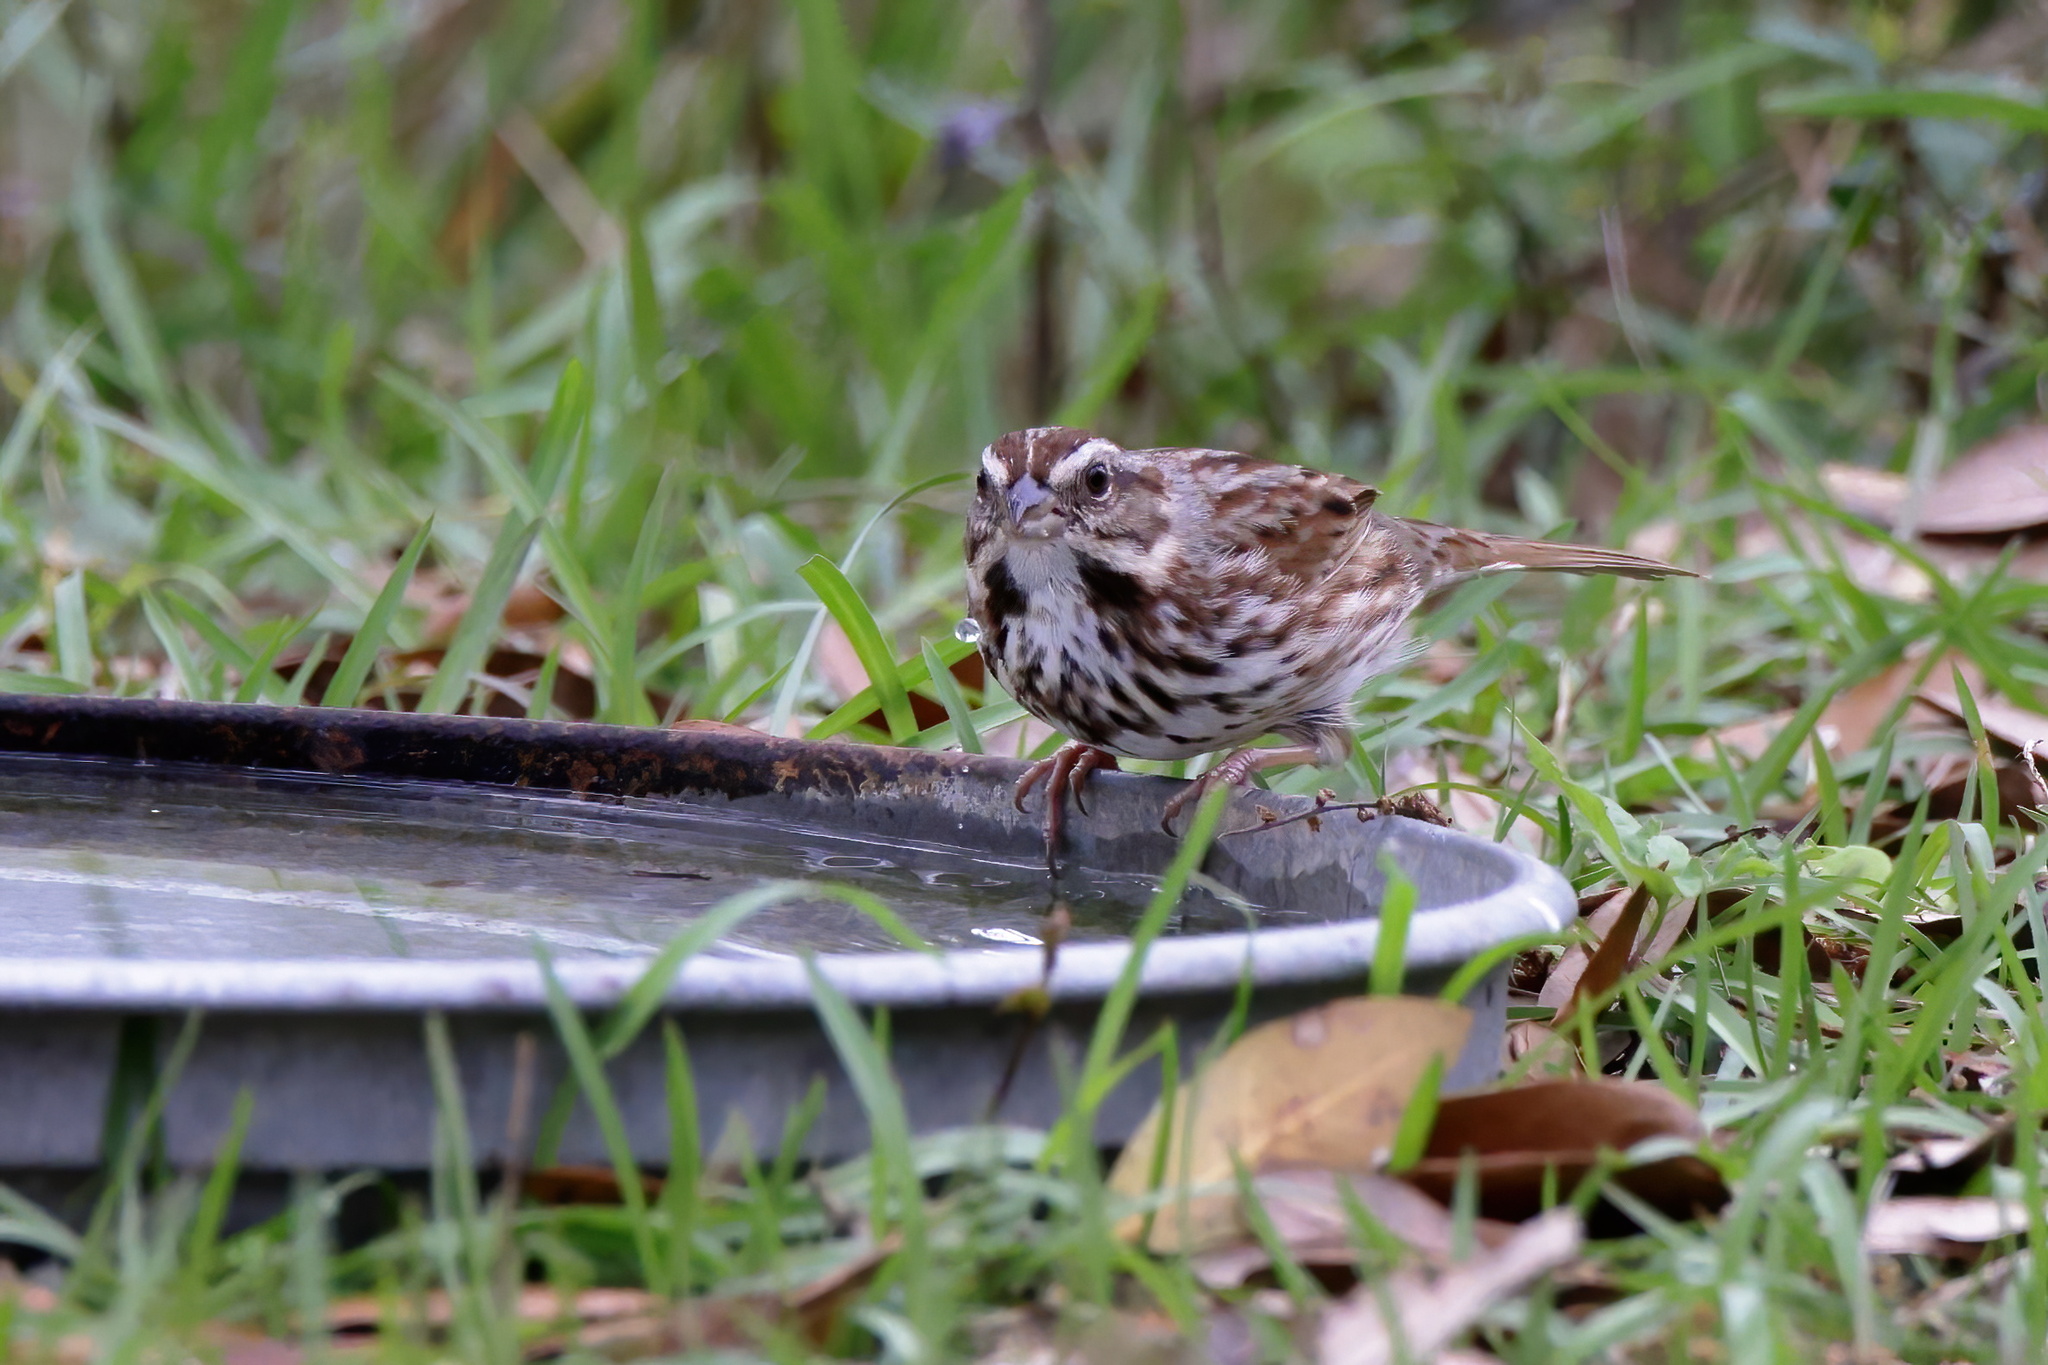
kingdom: Animalia
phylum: Chordata
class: Aves
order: Passeriformes
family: Passerellidae
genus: Melospiza
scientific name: Melospiza melodia
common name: Song sparrow
